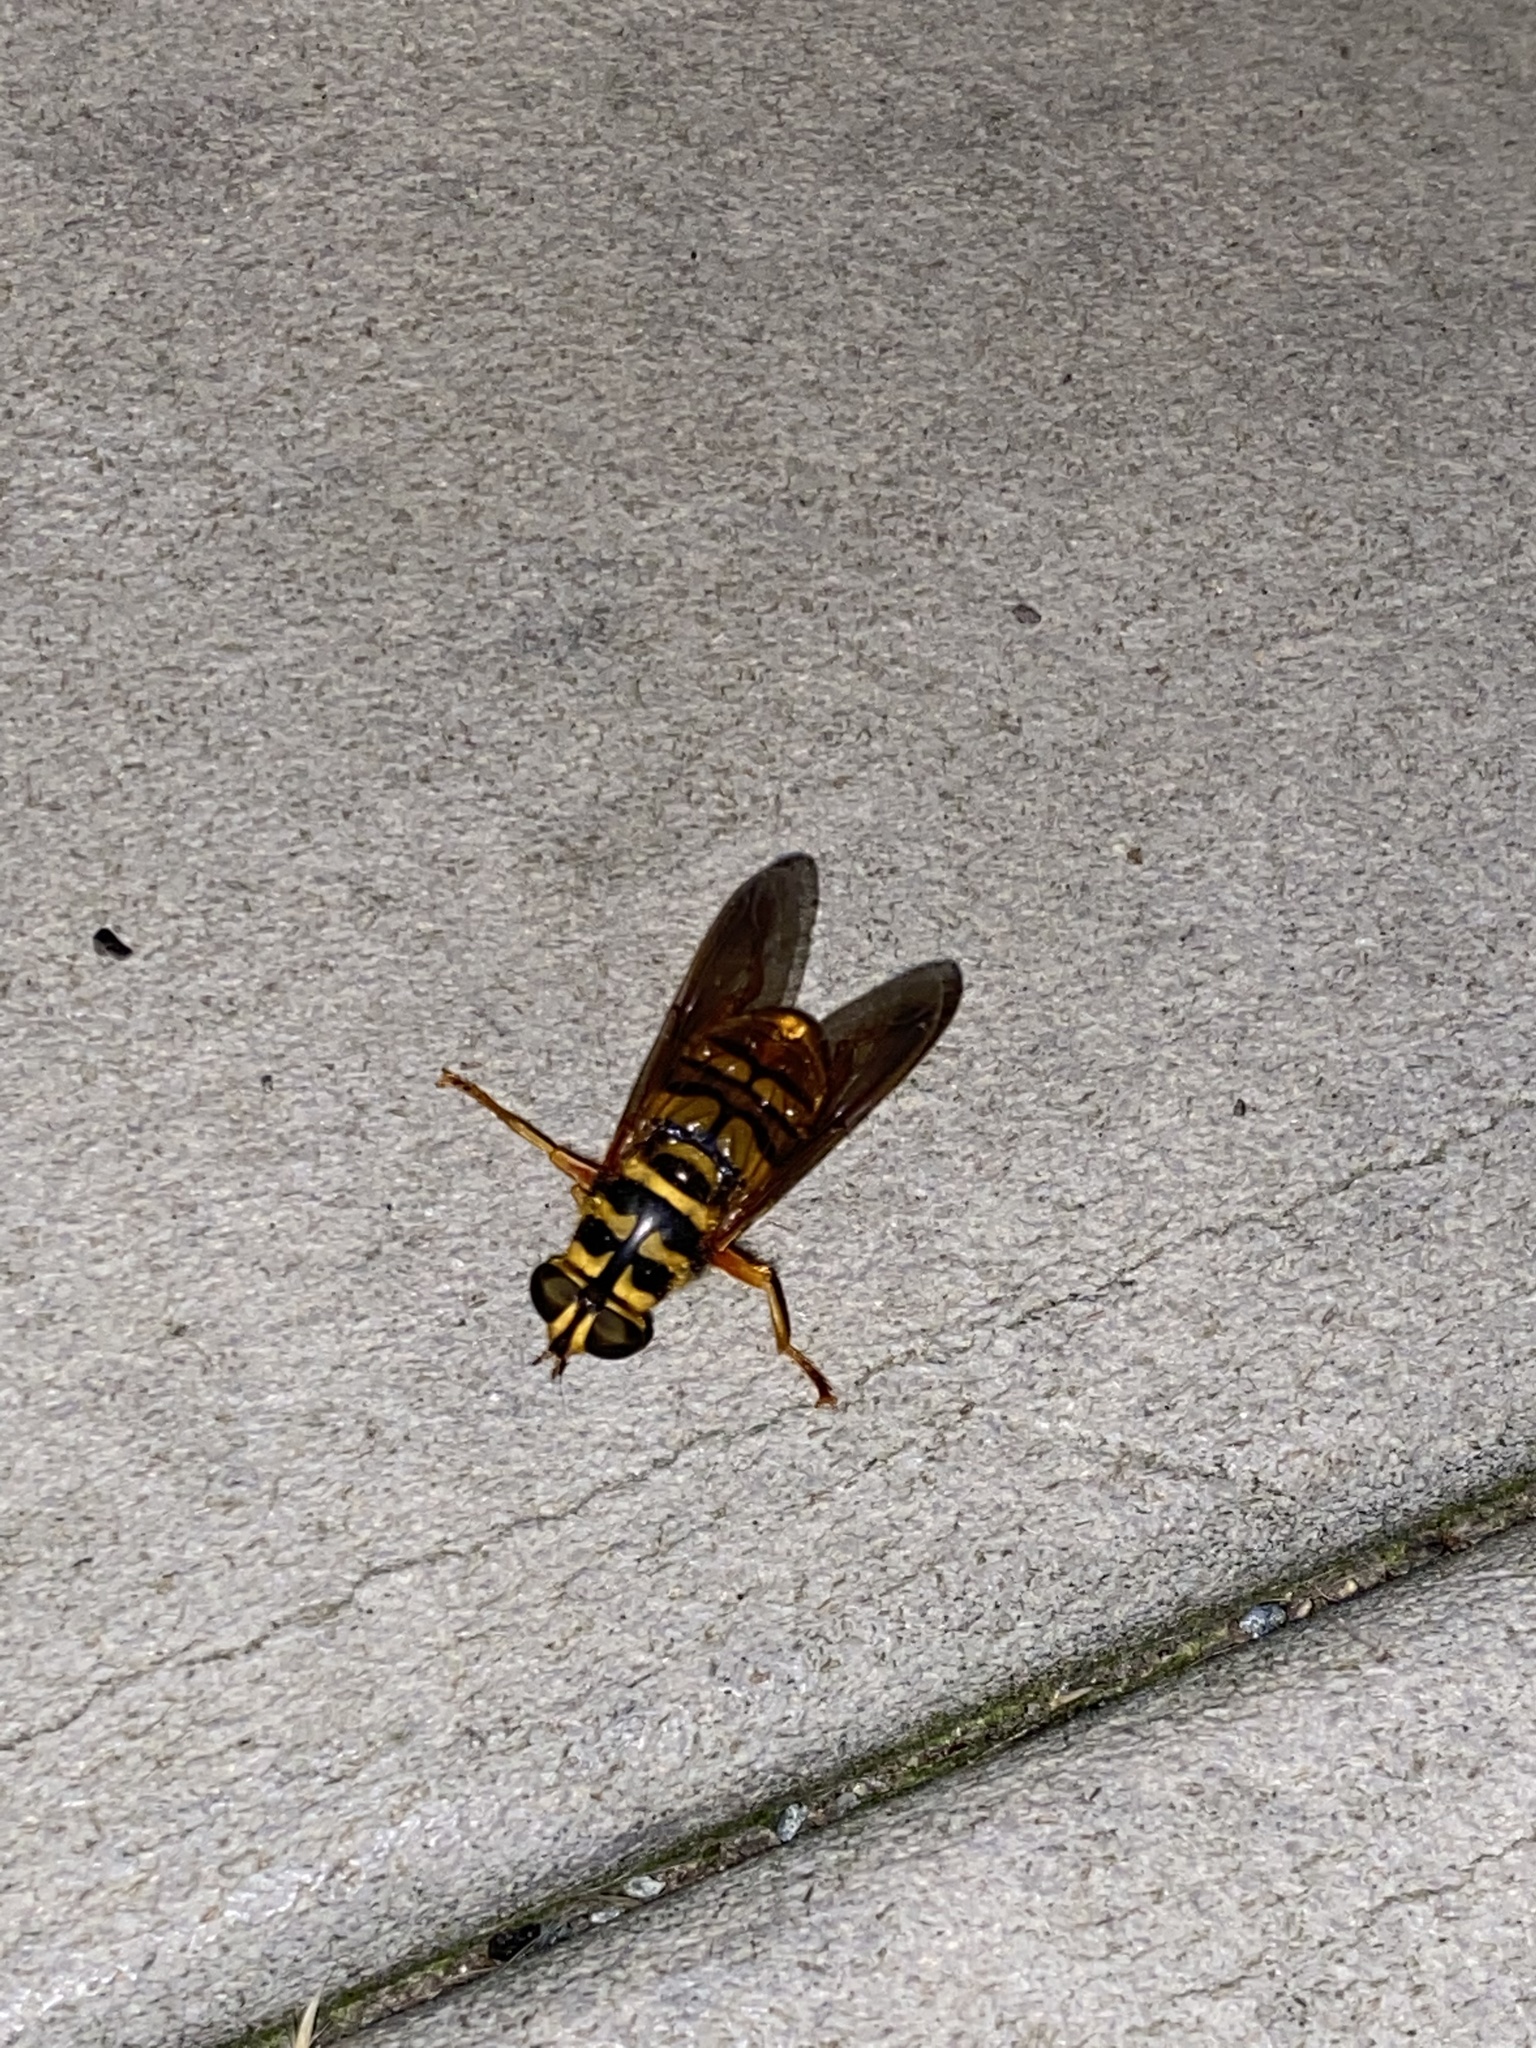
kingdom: Animalia
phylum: Arthropoda
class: Insecta
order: Diptera
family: Syrphidae
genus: Milesia
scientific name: Milesia virginiensis
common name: Virginia giant
